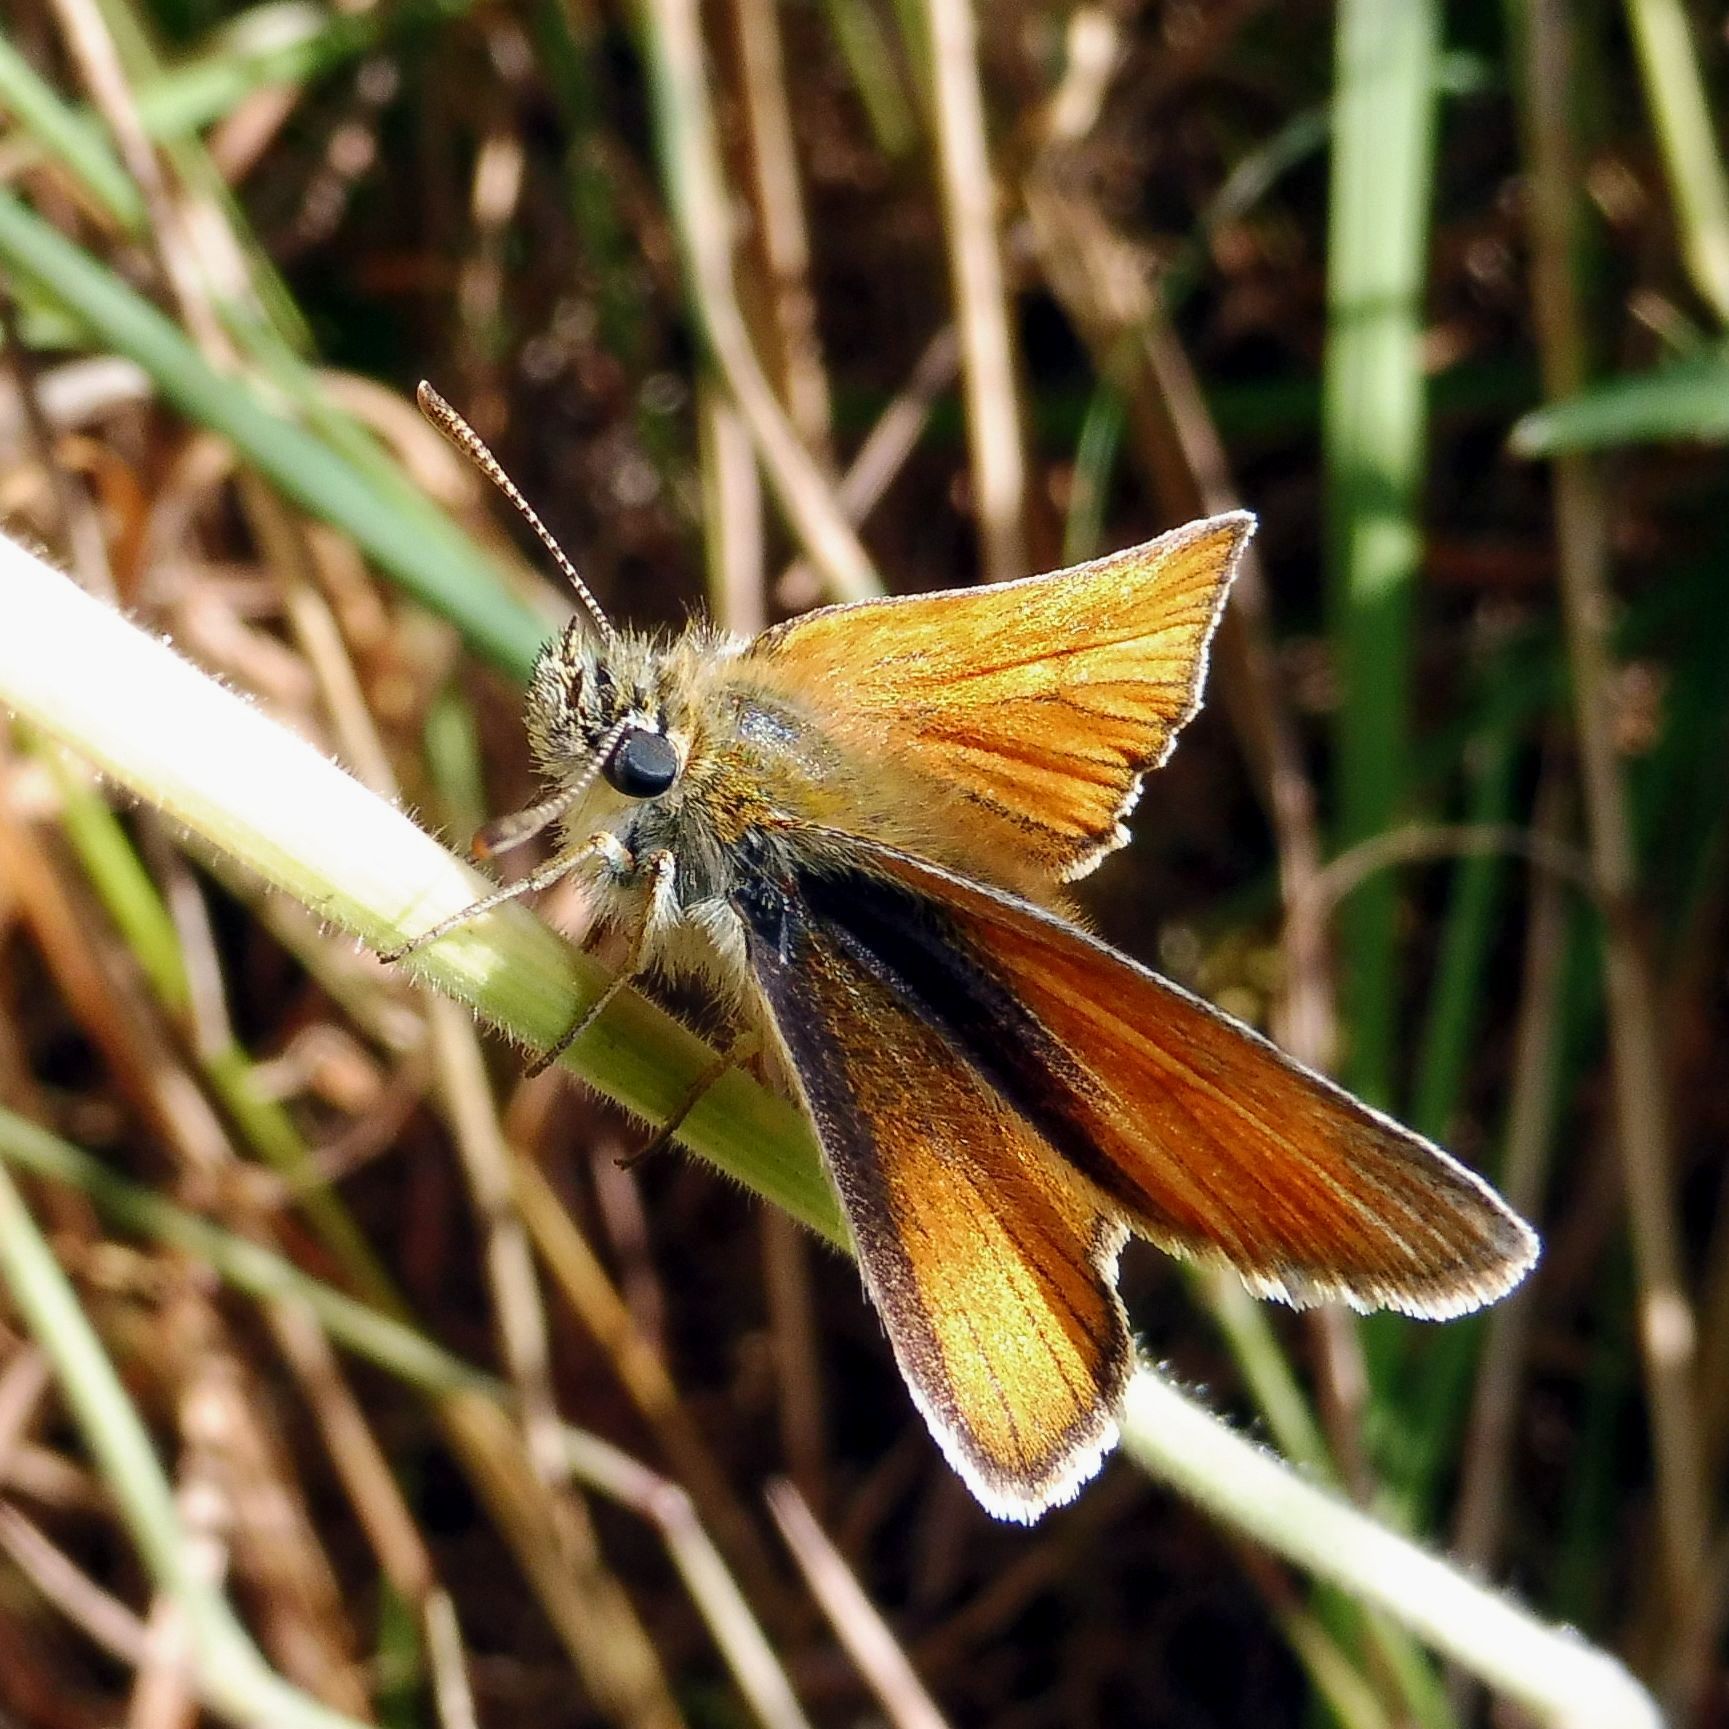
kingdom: Animalia
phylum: Arthropoda
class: Insecta
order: Lepidoptera
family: Hesperiidae
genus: Thymelicus
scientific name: Thymelicus sylvestris
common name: Small skipper
